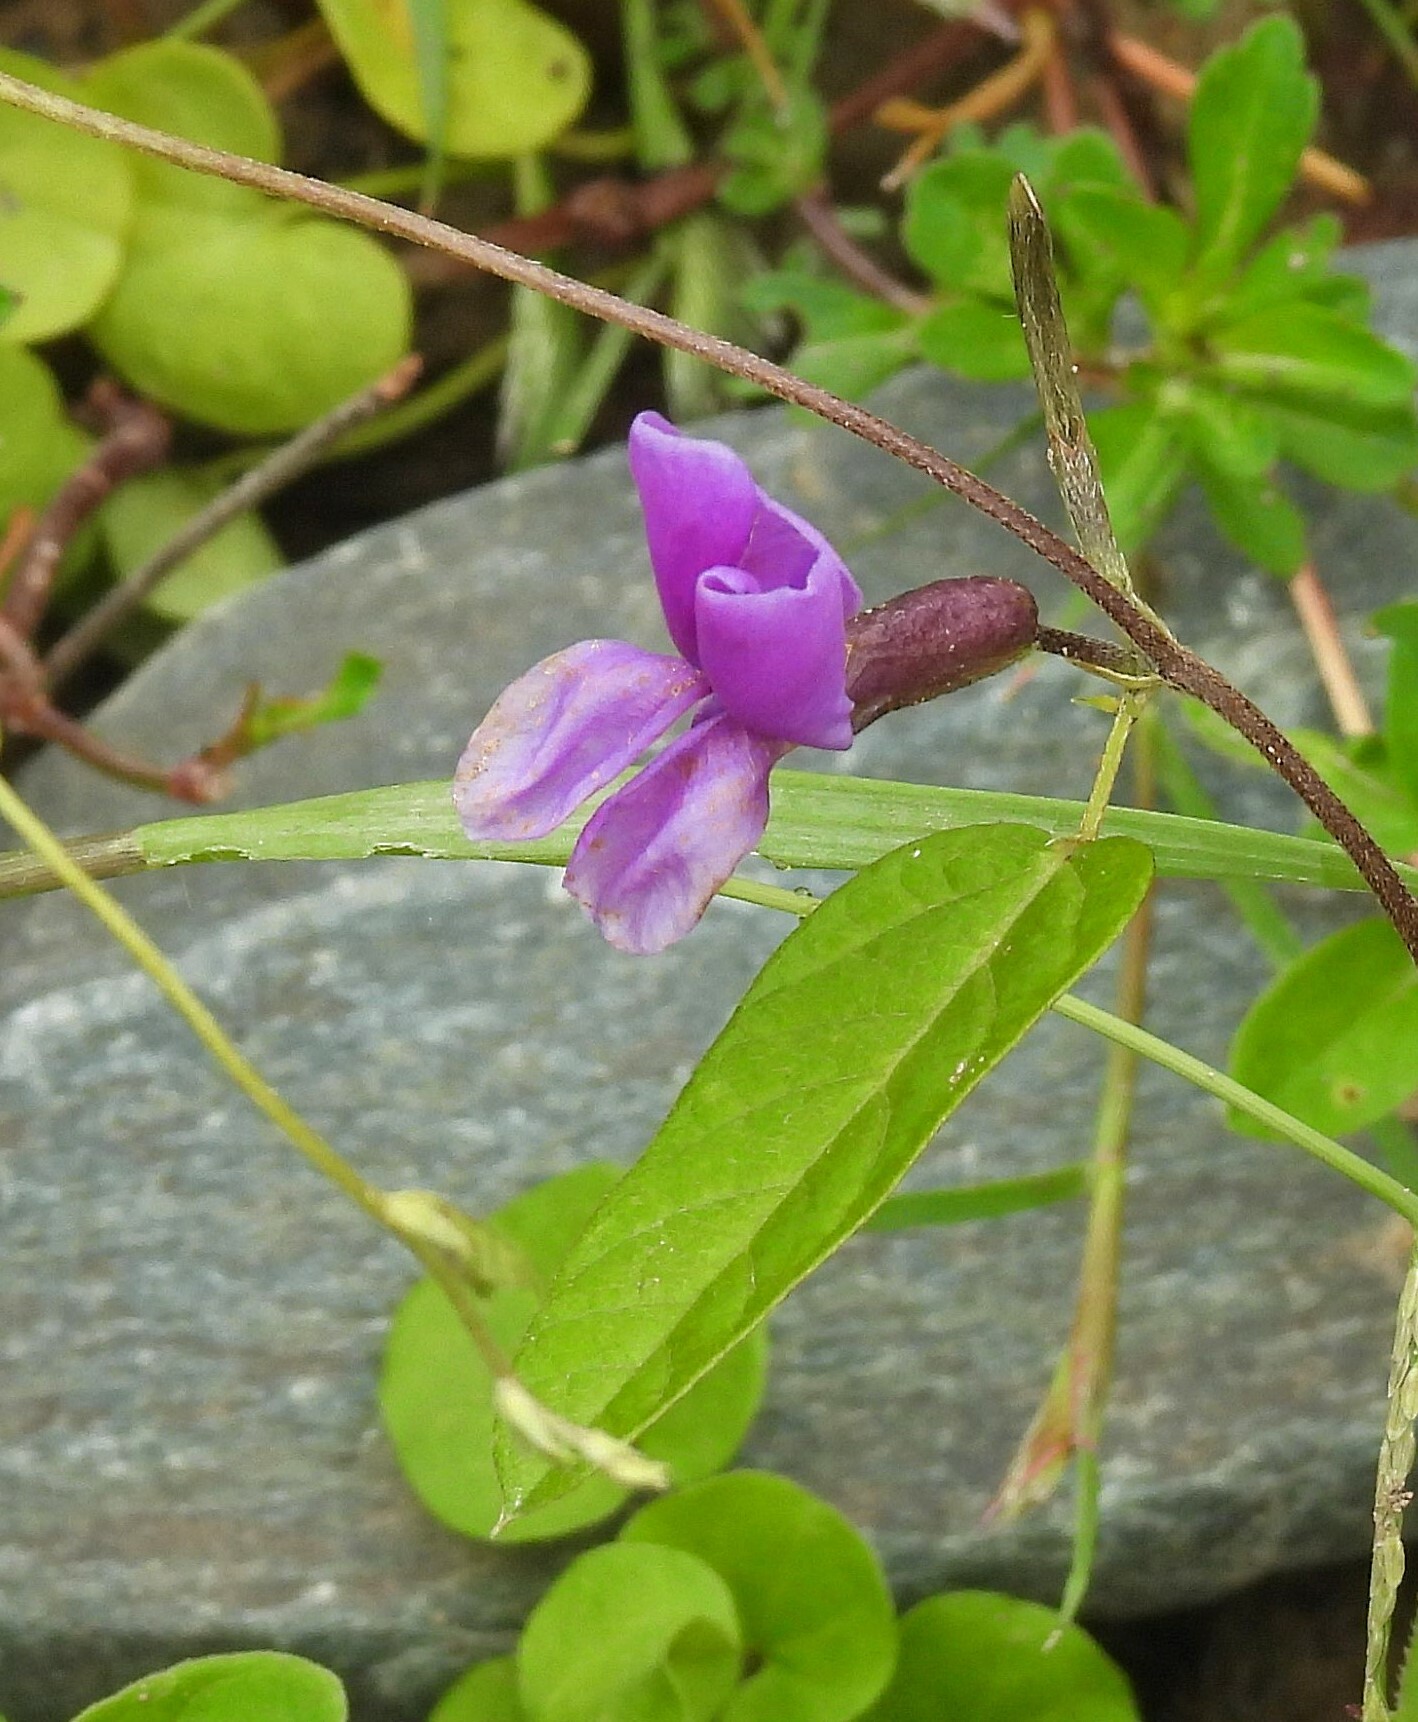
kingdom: Plantae
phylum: Tracheophyta
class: Magnoliopsida
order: Fabales
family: Fabaceae
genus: Cologania
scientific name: Cologania broussonetii
